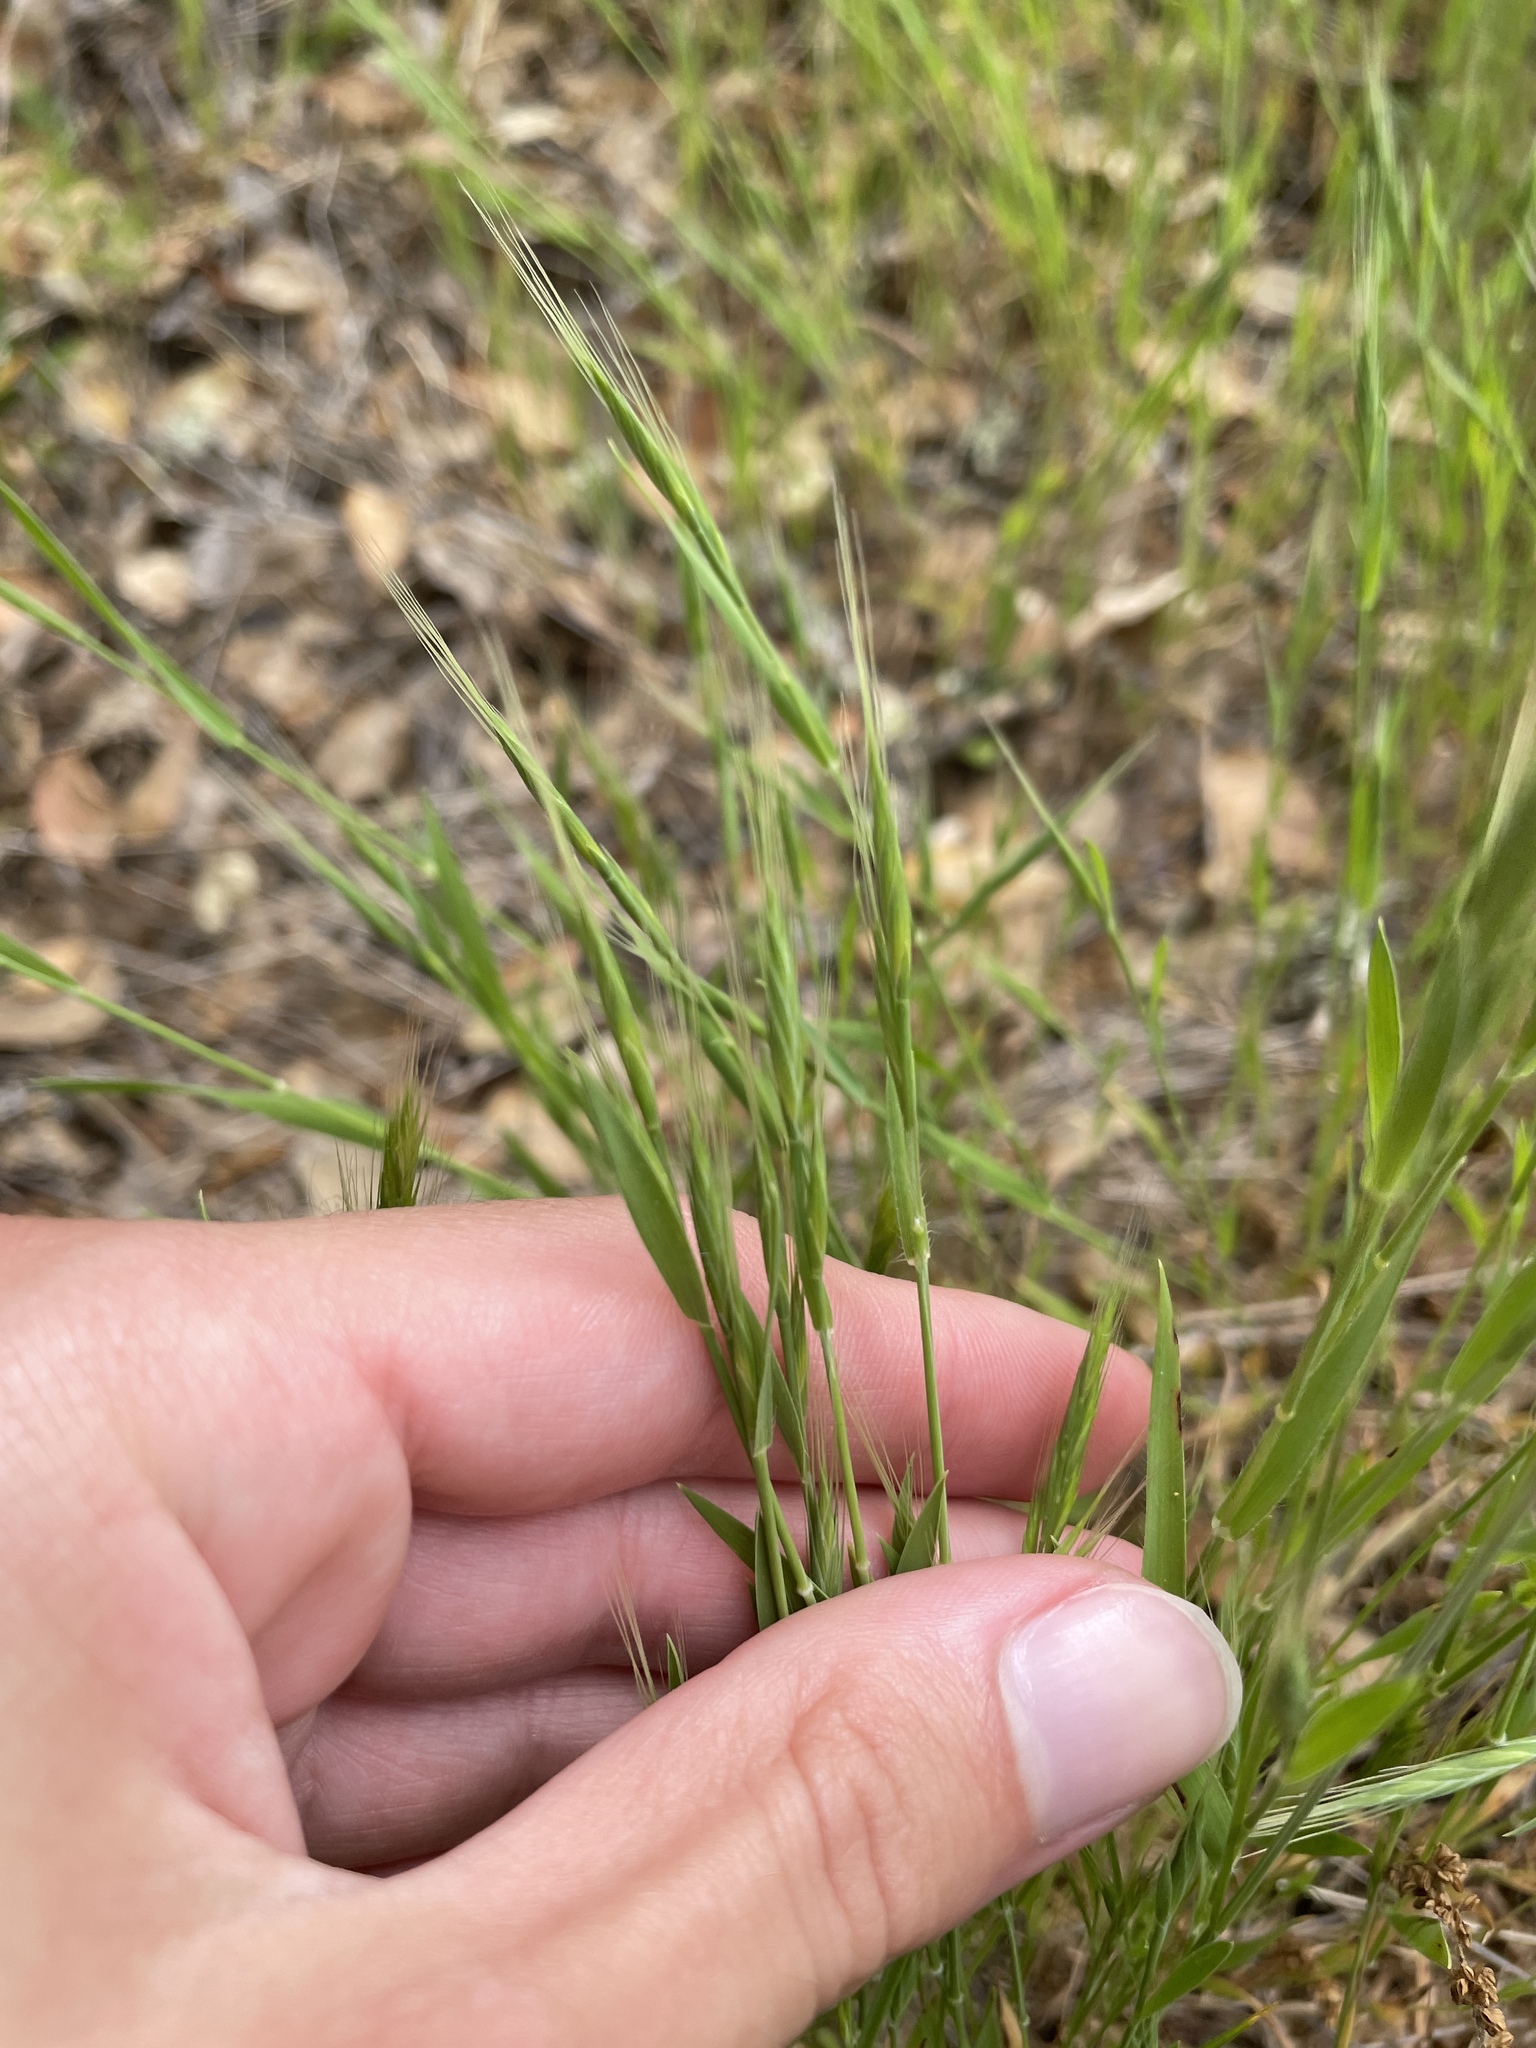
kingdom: Plantae
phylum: Tracheophyta
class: Liliopsida
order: Poales
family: Poaceae
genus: Brachypodium
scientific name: Brachypodium distachyon
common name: Stiff brome
